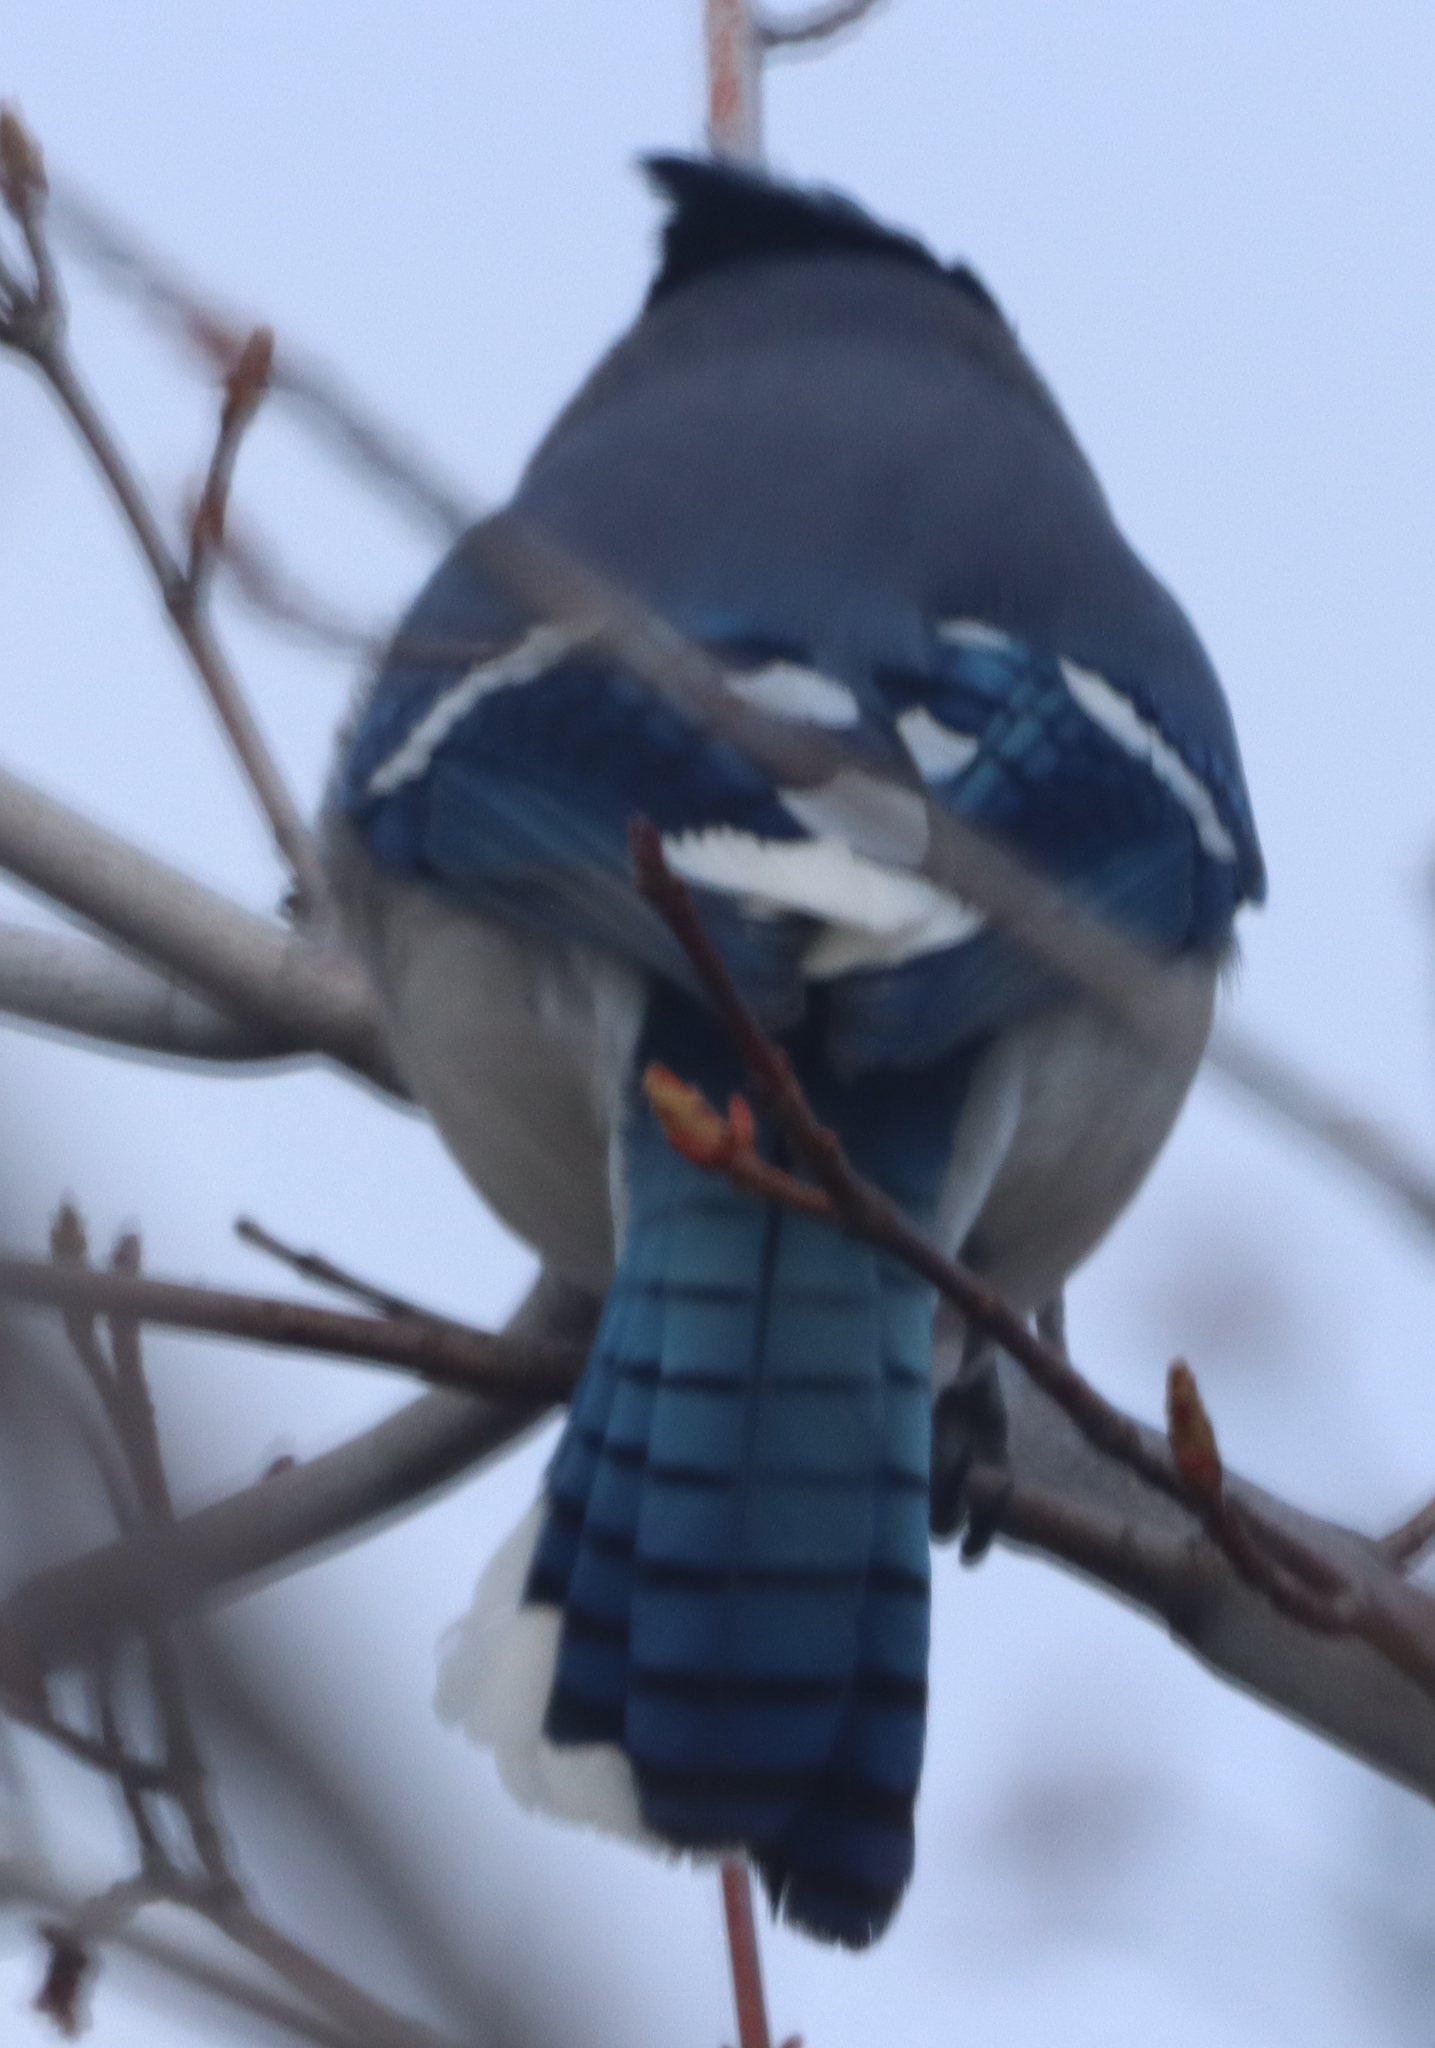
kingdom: Animalia
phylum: Chordata
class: Aves
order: Passeriformes
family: Corvidae
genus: Cyanocitta
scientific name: Cyanocitta cristata
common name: Blue jay
